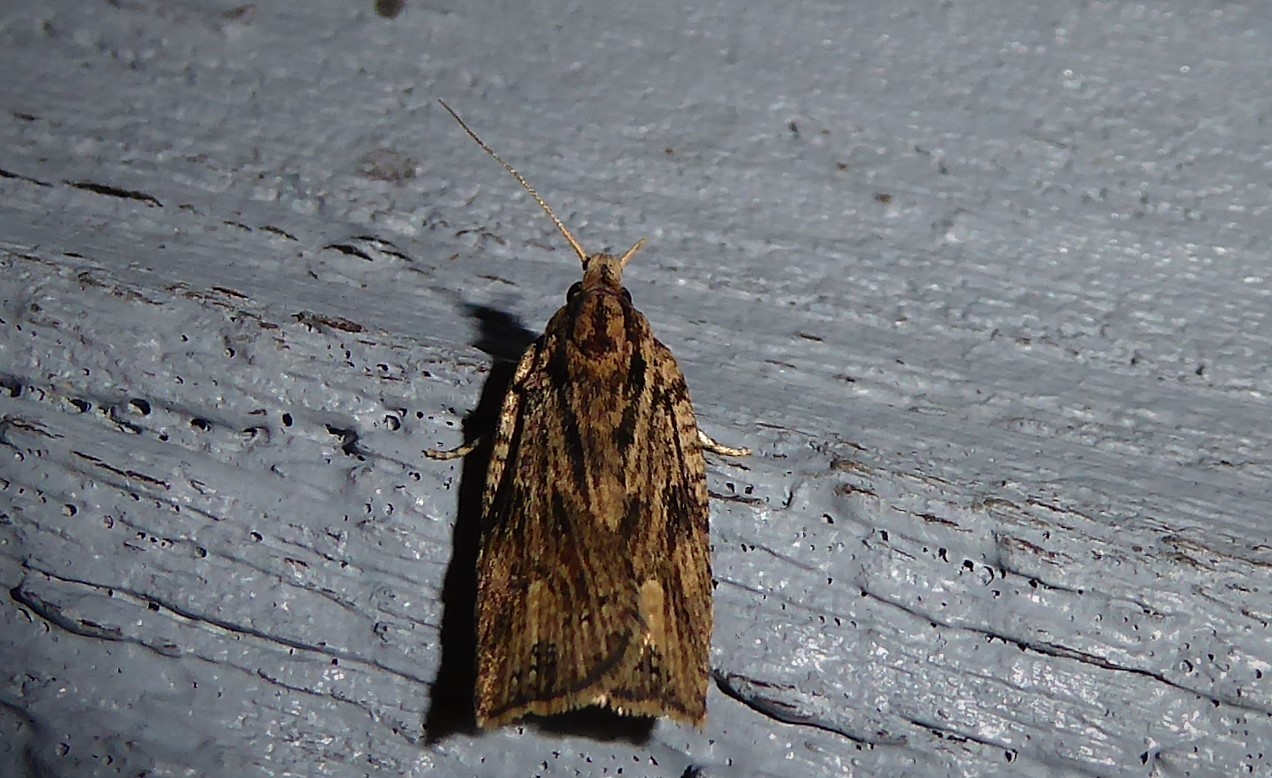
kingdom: Animalia
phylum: Arthropoda
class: Insecta
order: Lepidoptera
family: Tortricidae
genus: Planotortrix
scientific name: Planotortrix notophaea
